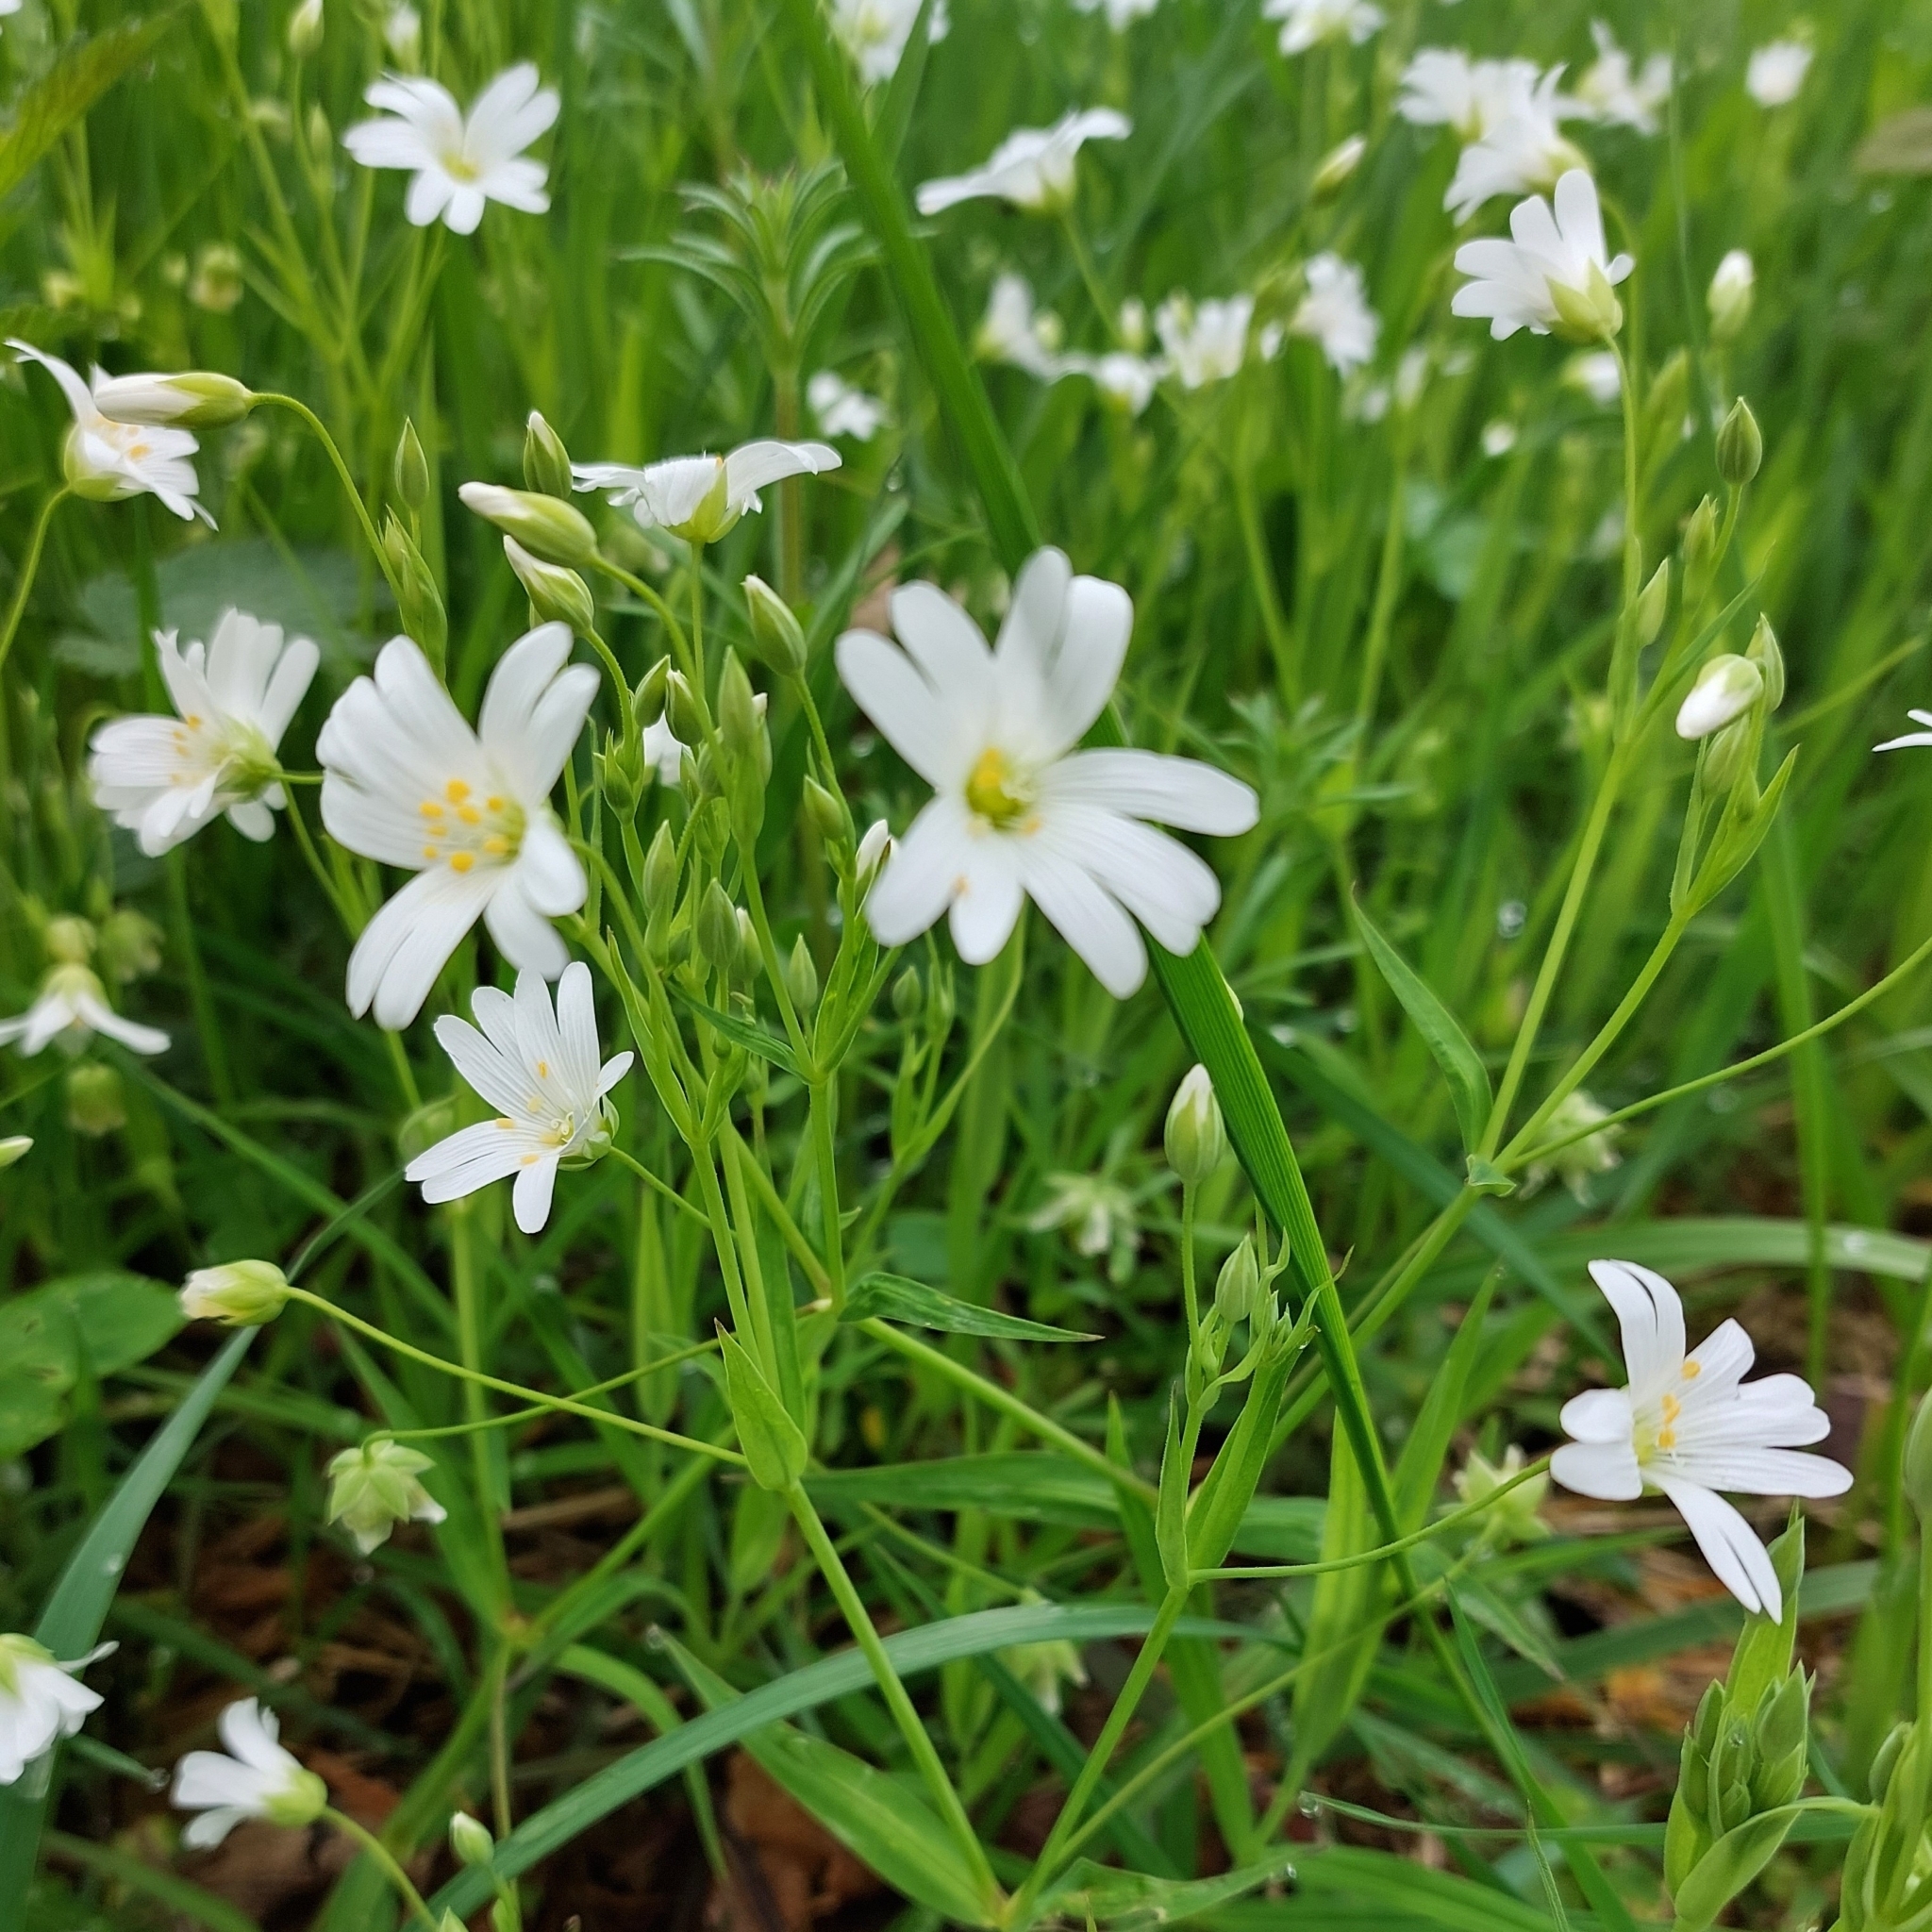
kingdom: Plantae
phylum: Tracheophyta
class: Magnoliopsida
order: Caryophyllales
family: Caryophyllaceae
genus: Rabelera
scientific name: Rabelera holostea
